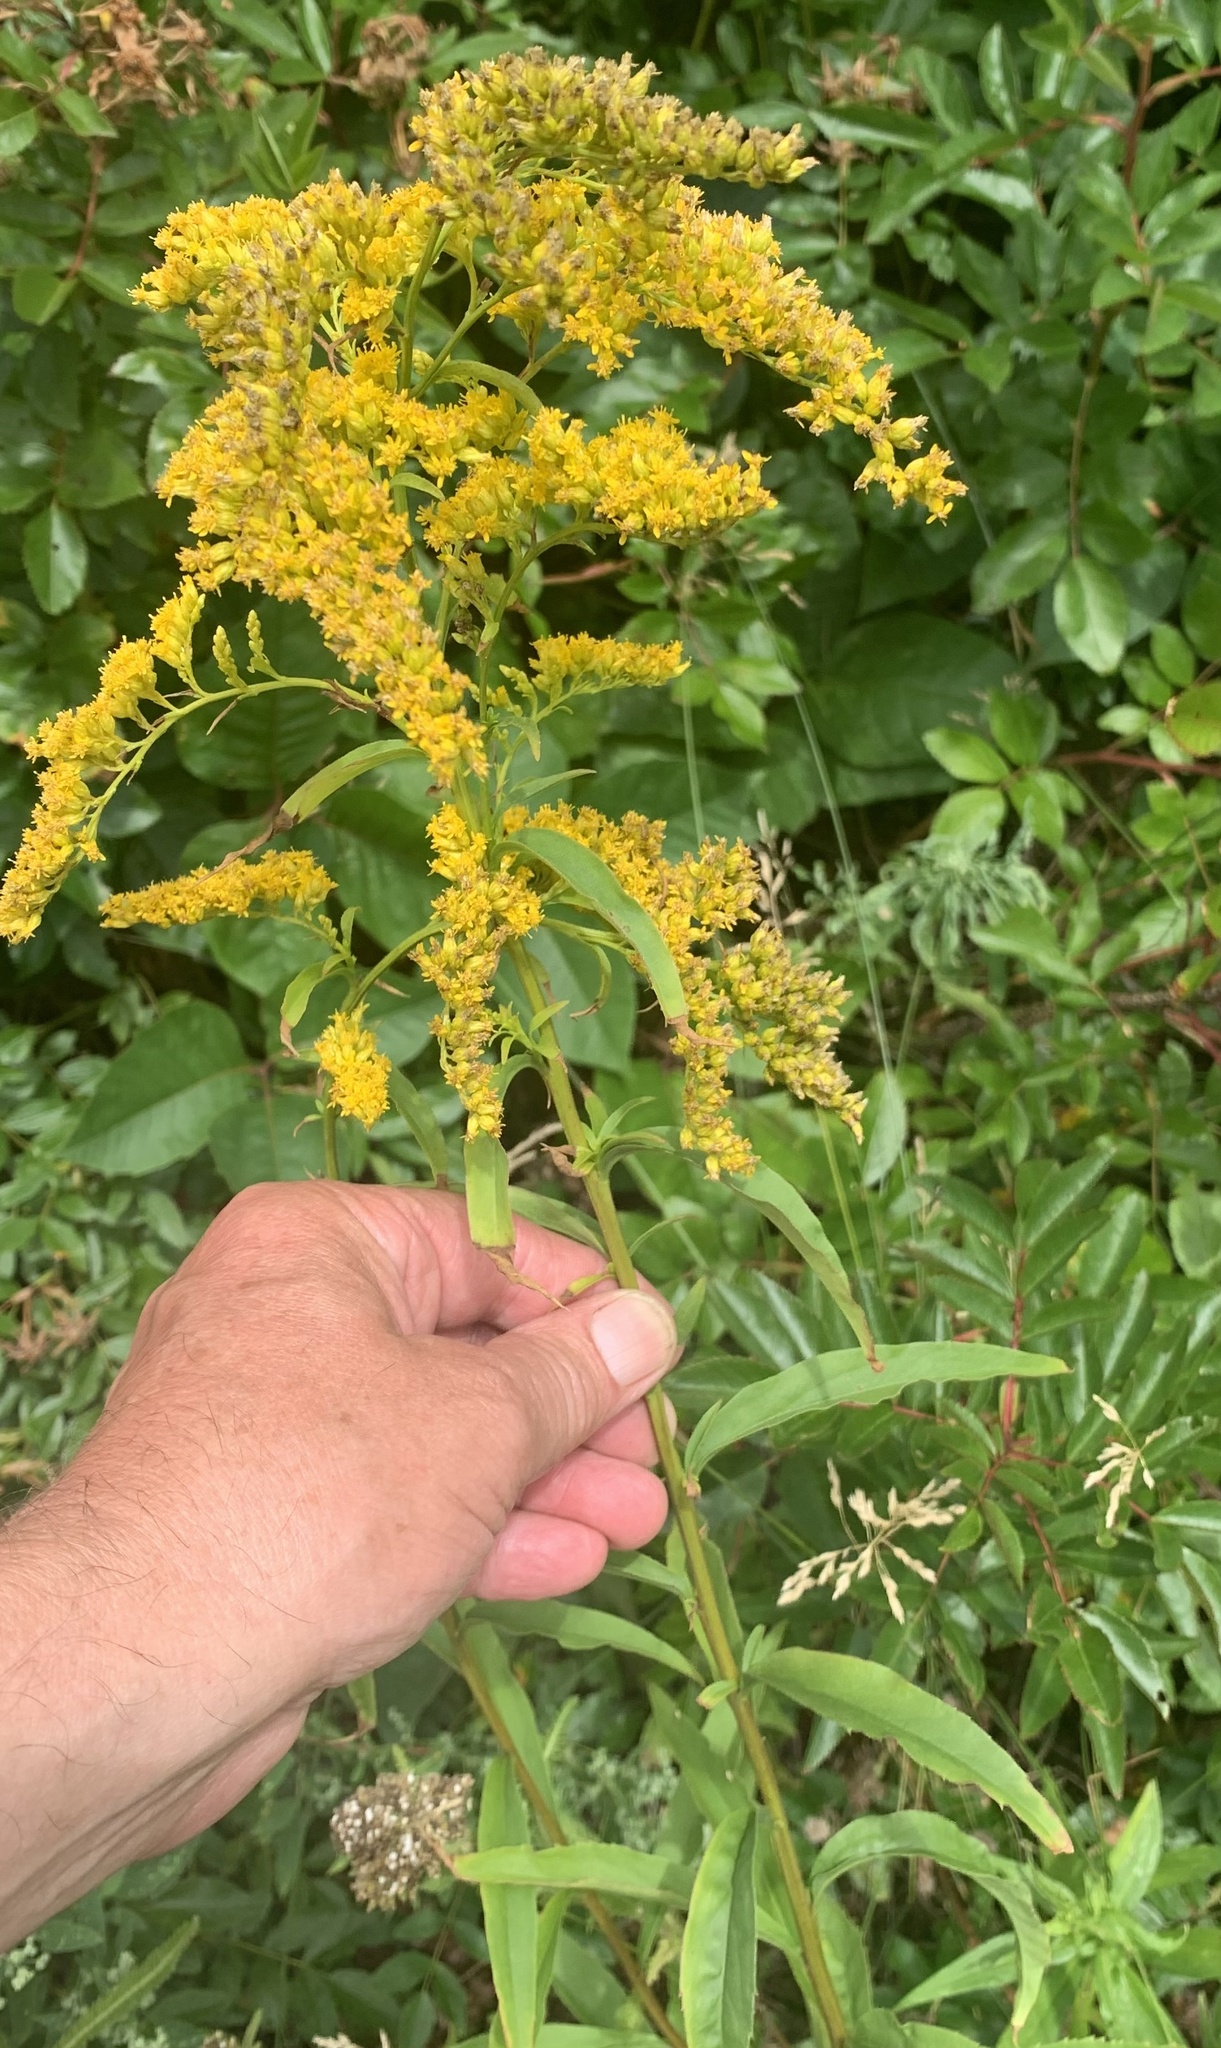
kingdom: Plantae
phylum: Tracheophyta
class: Magnoliopsida
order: Asterales
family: Asteraceae
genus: Solidago
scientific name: Solidago juncea
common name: Early goldenrod
